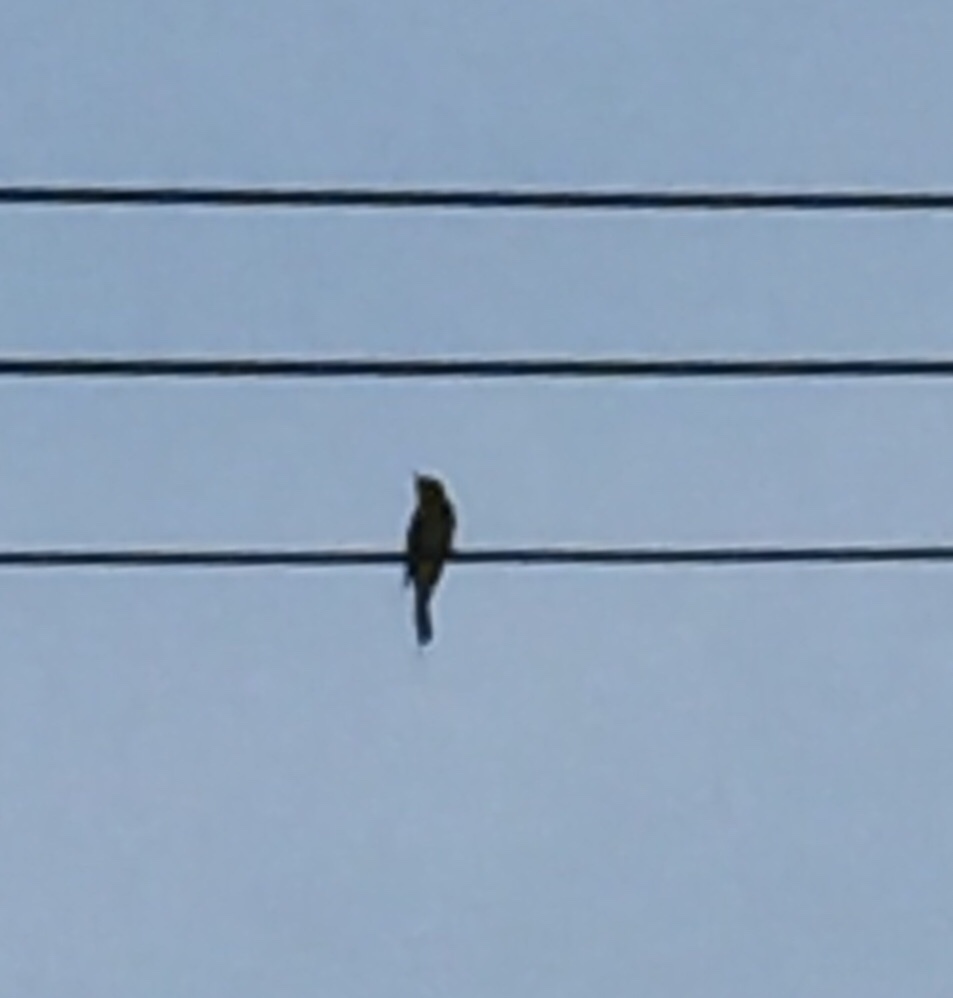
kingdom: Animalia
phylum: Chordata
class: Aves
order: Coraciiformes
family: Meropidae
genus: Merops
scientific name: Merops orientalis
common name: Green bee-eater
